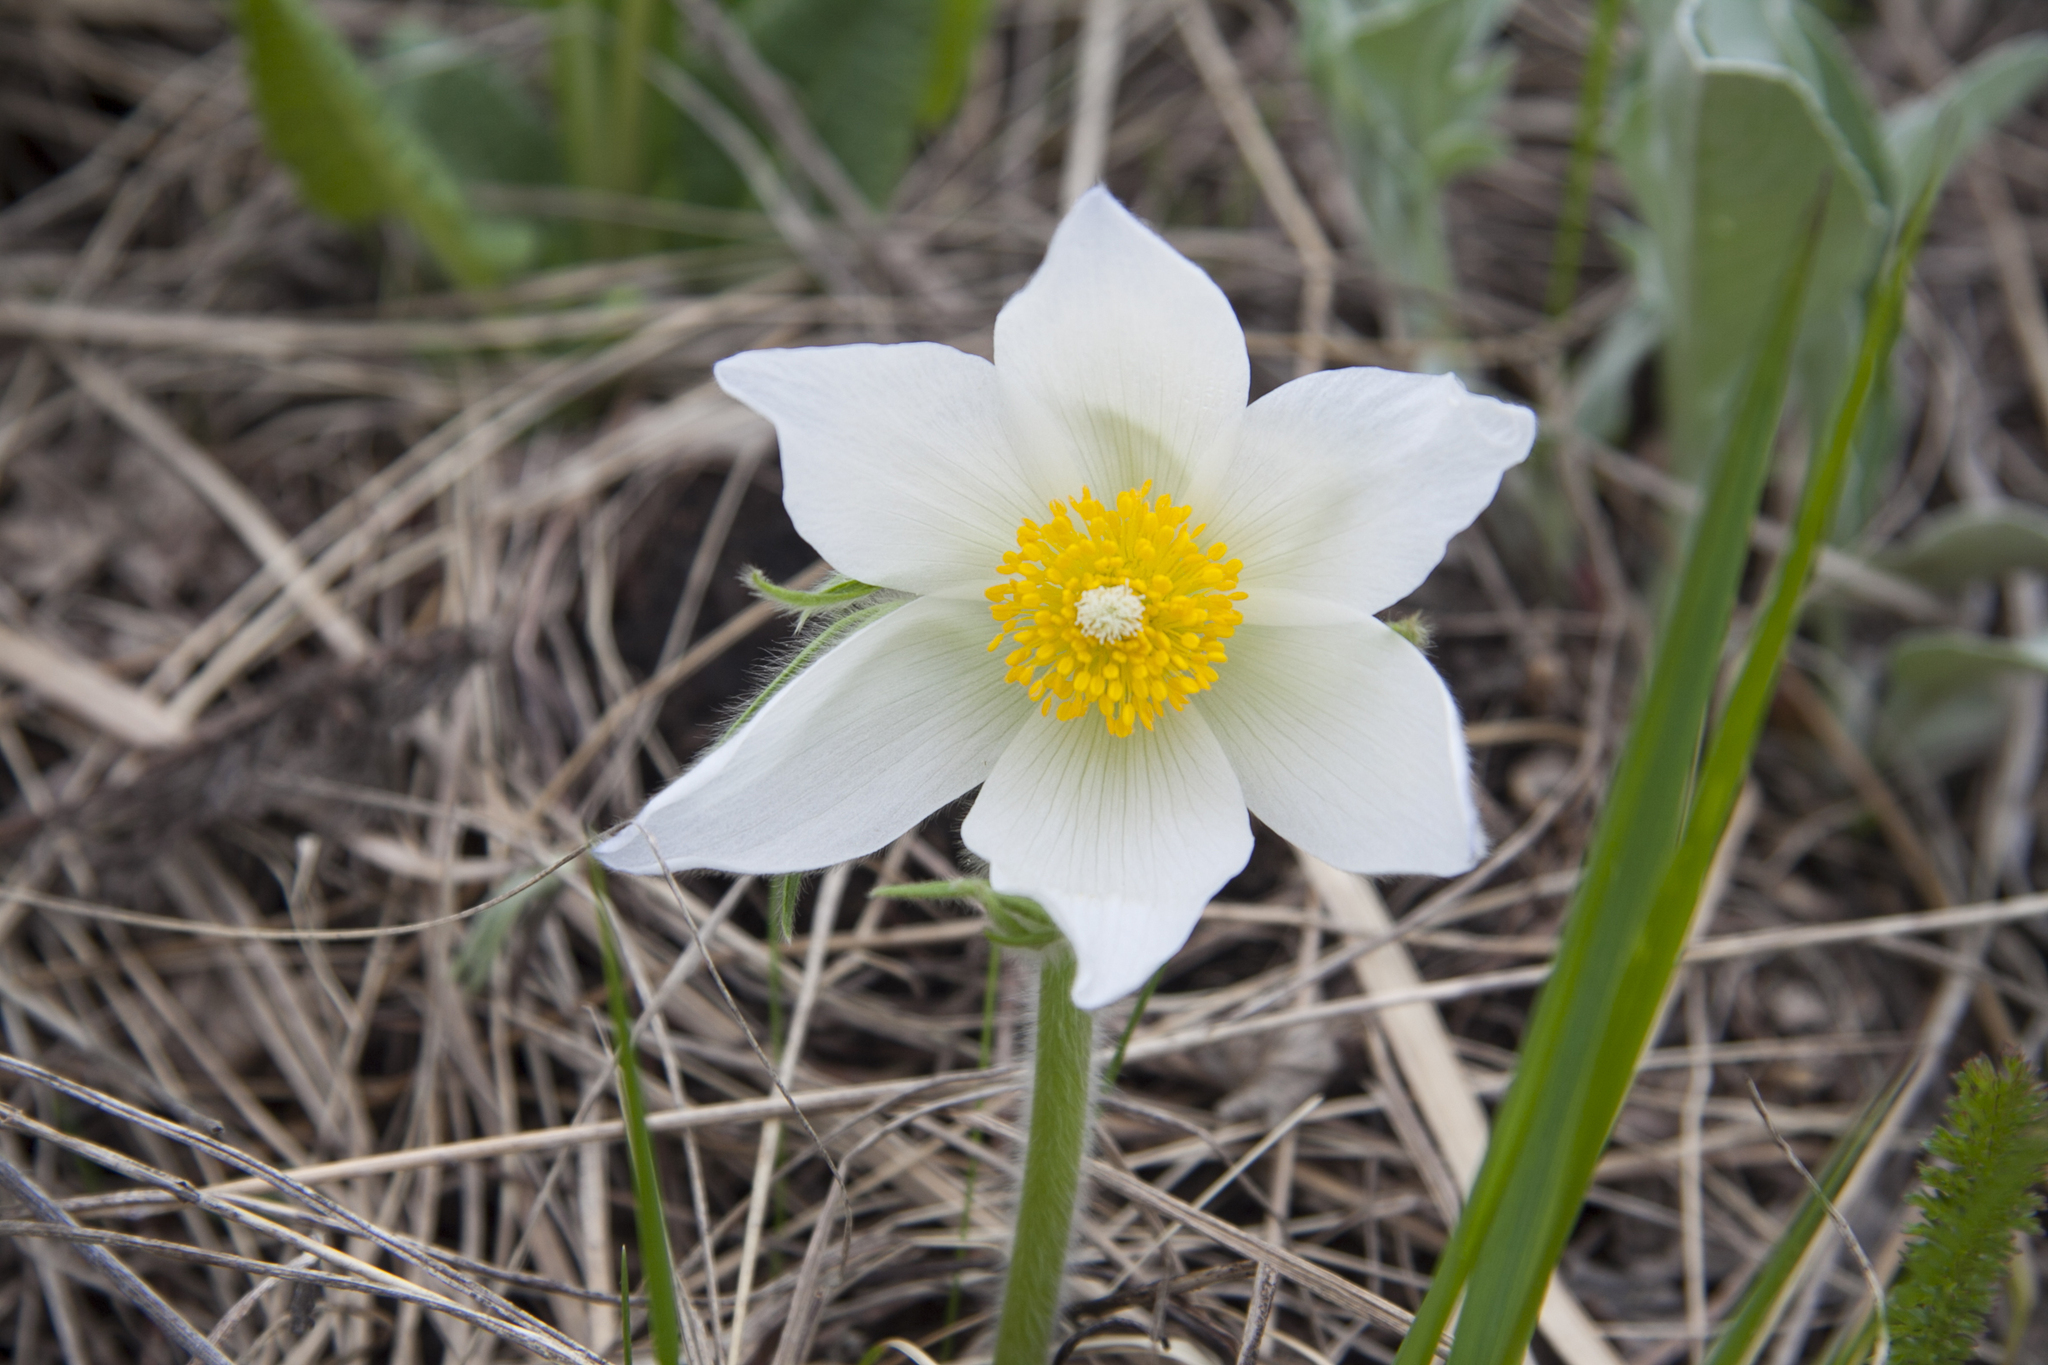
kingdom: Plantae
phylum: Tracheophyta
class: Magnoliopsida
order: Ranunculales
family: Ranunculaceae
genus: Pulsatilla
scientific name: Pulsatilla patens
